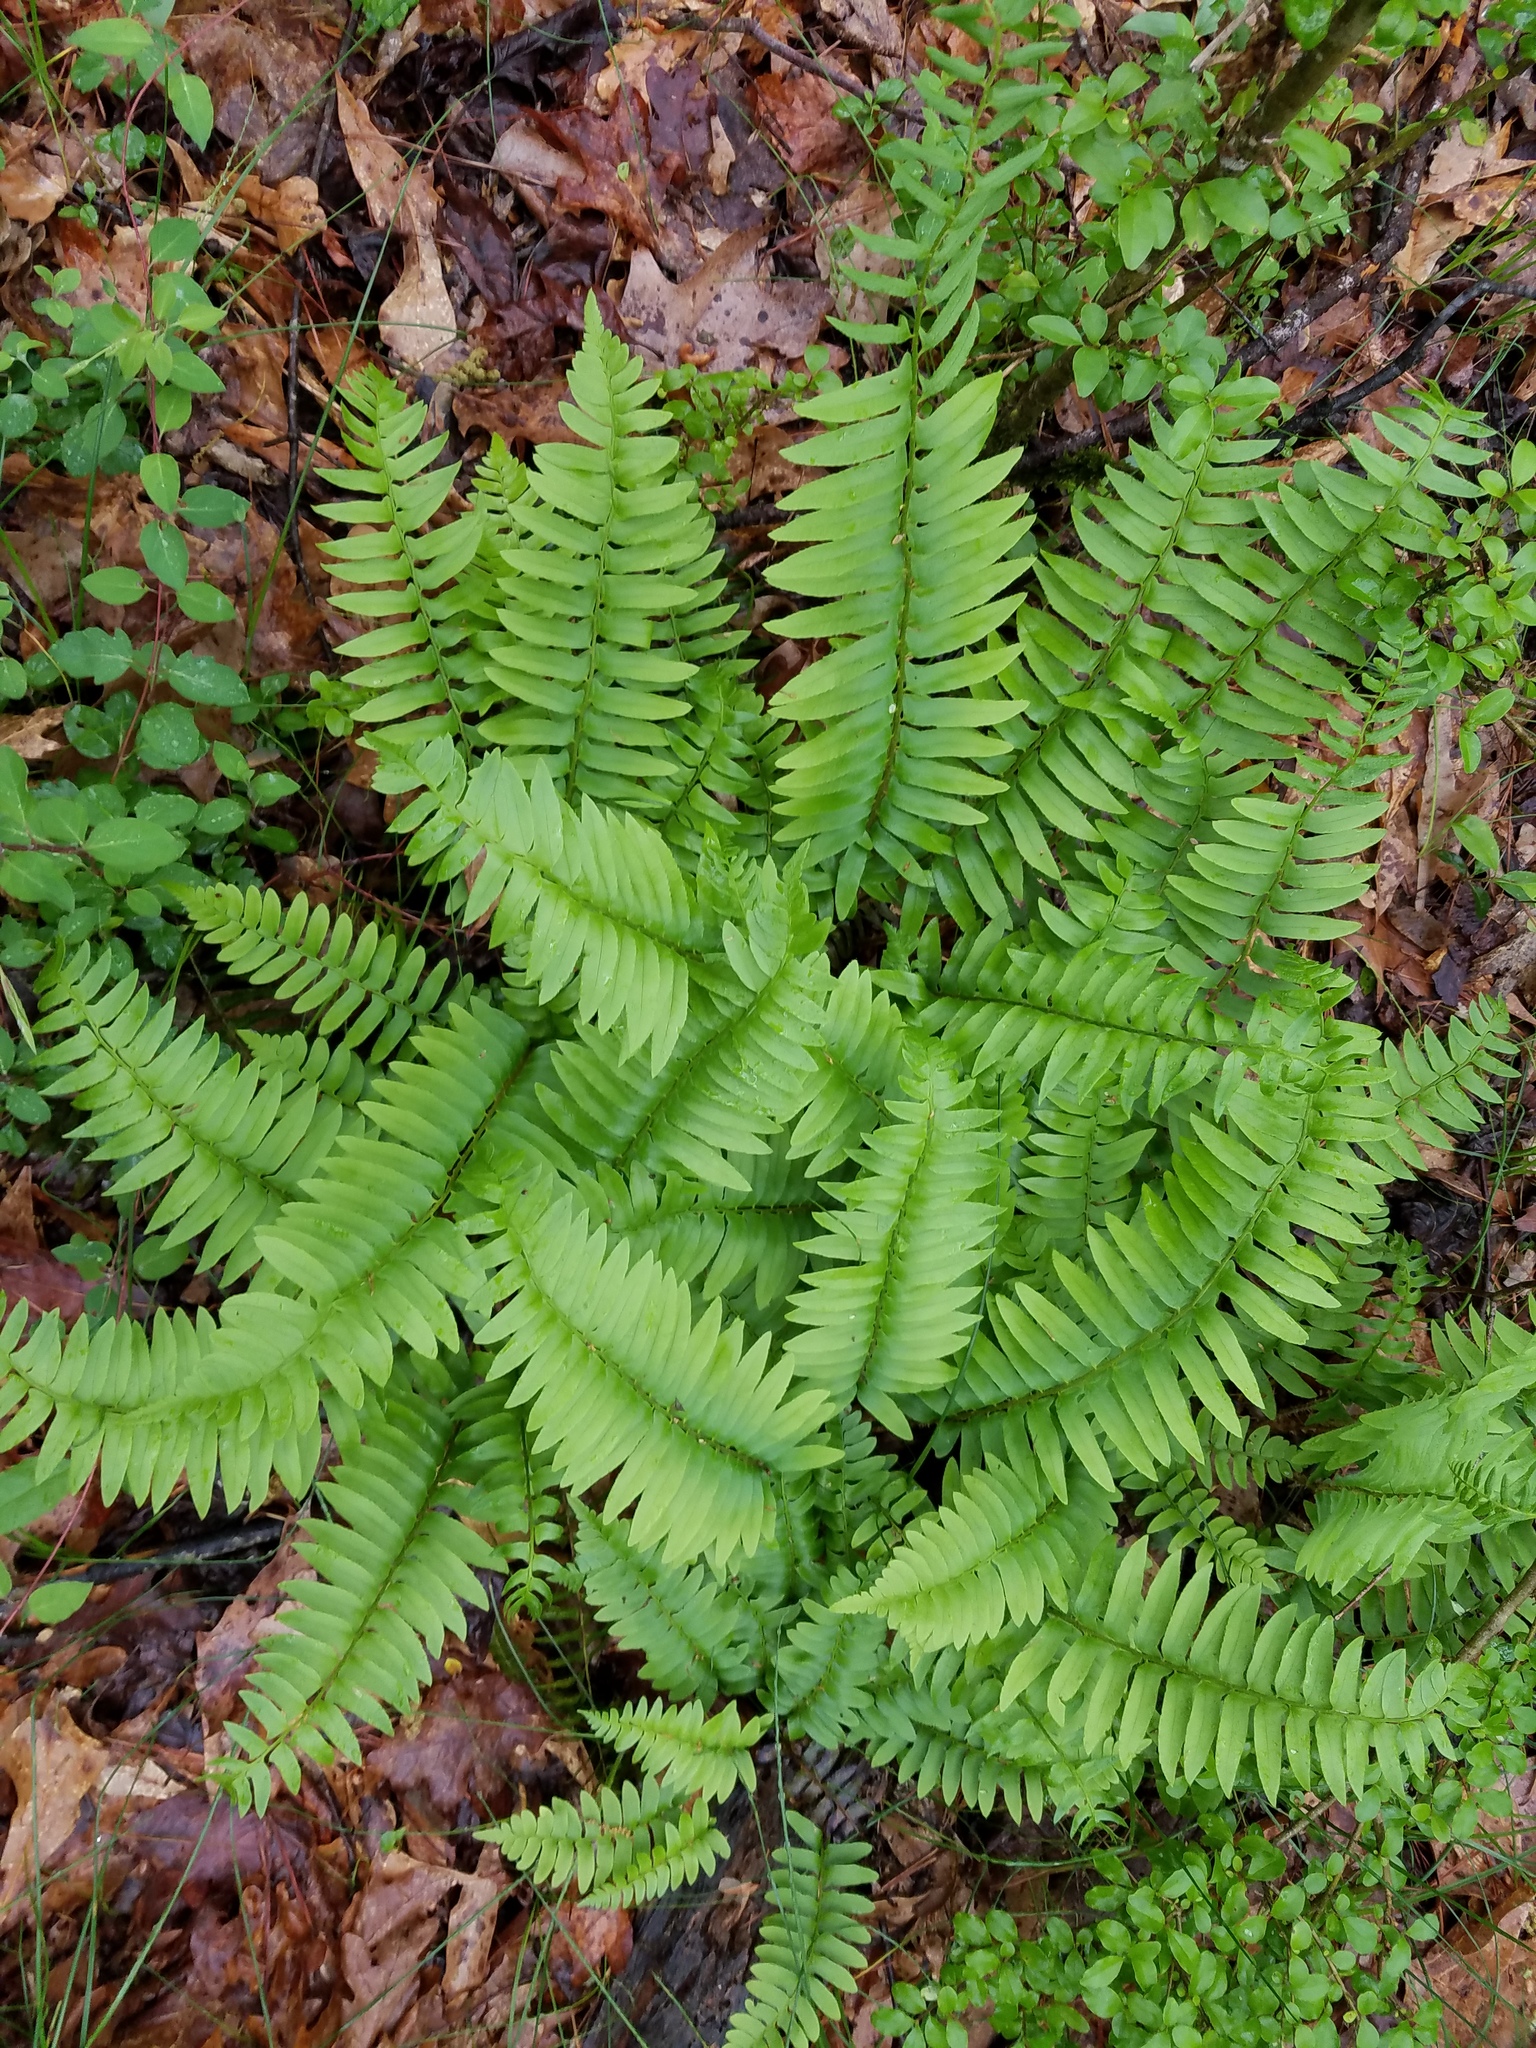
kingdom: Plantae
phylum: Tracheophyta
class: Polypodiopsida
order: Polypodiales
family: Dryopteridaceae
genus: Polystichum
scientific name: Polystichum acrostichoides
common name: Christmas fern
